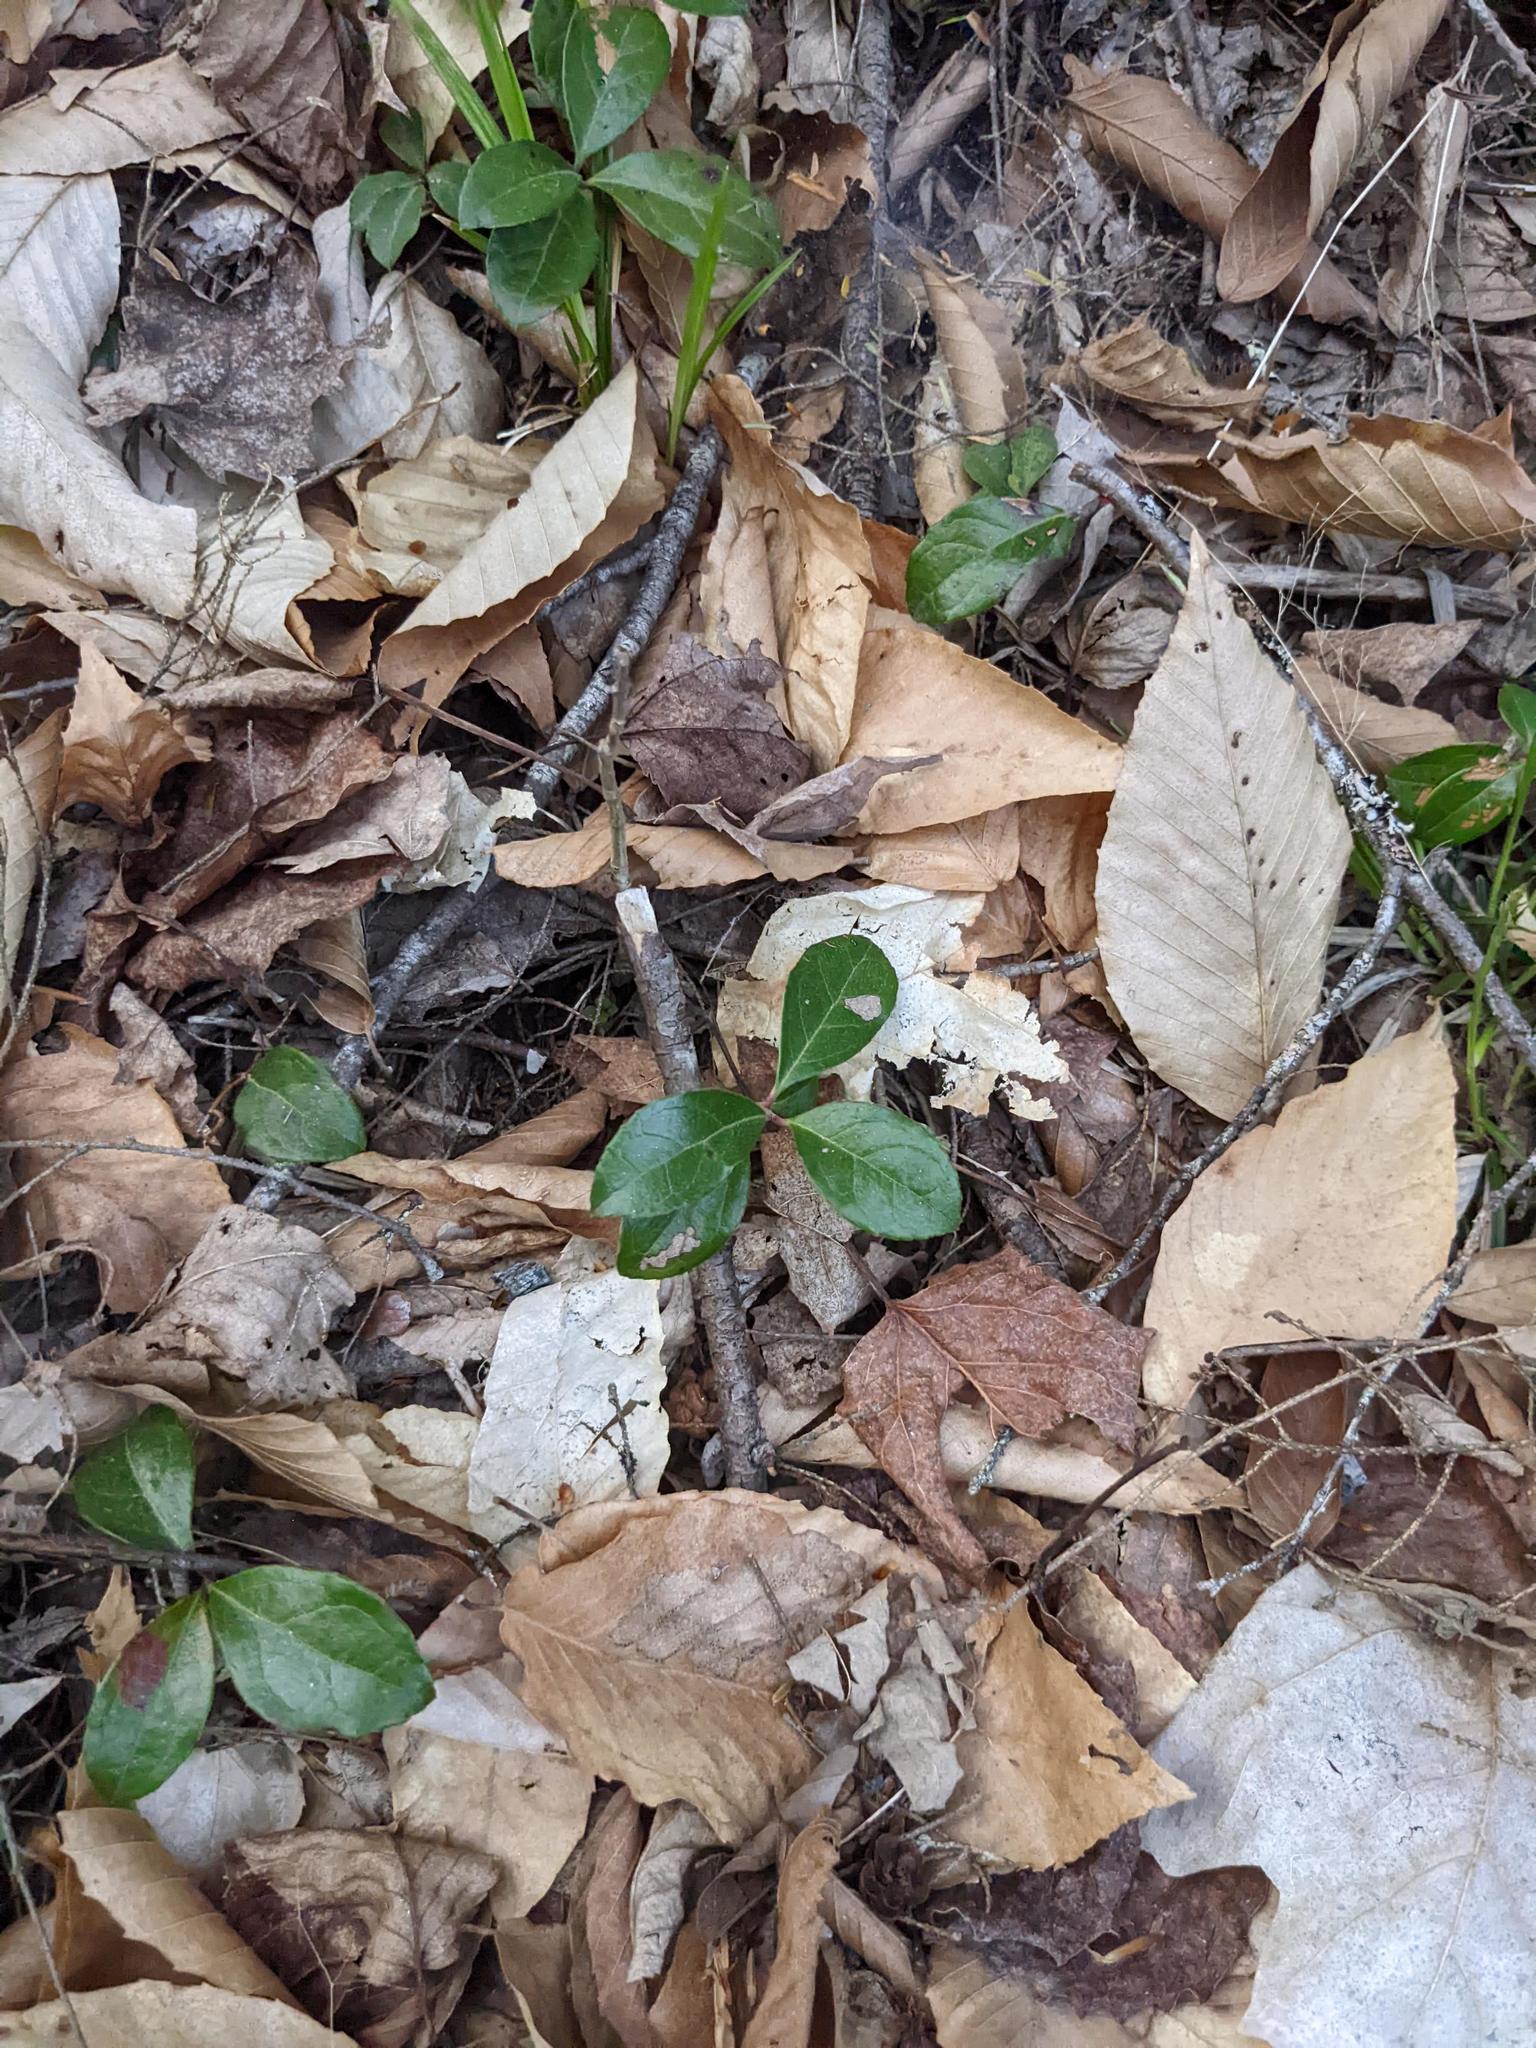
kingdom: Plantae
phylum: Tracheophyta
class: Magnoliopsida
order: Fagales
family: Fagaceae
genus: Fagus
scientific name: Fagus grandifolia
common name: American beech
